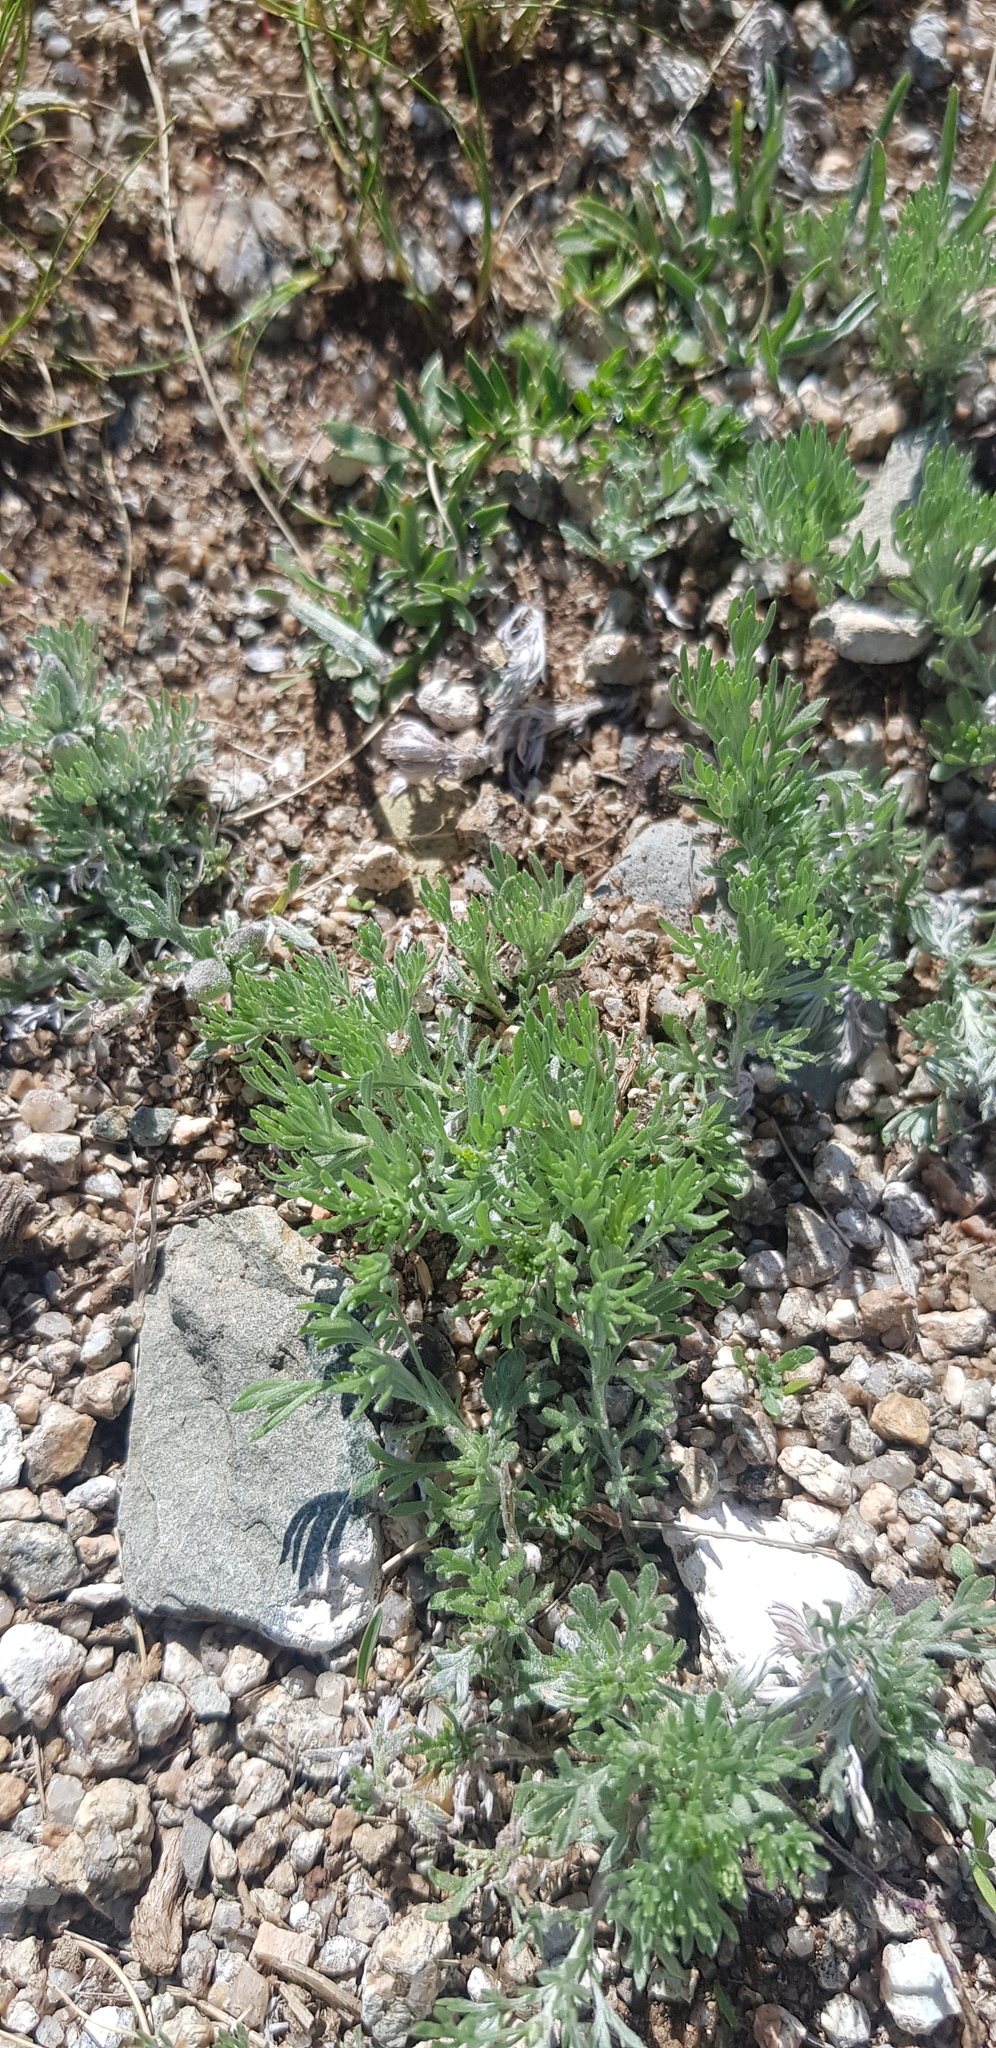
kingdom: Plantae
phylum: Tracheophyta
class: Magnoliopsida
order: Asterales
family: Asteraceae
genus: Artemisia
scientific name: Artemisia sieversiana
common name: Sieversian wormwood
